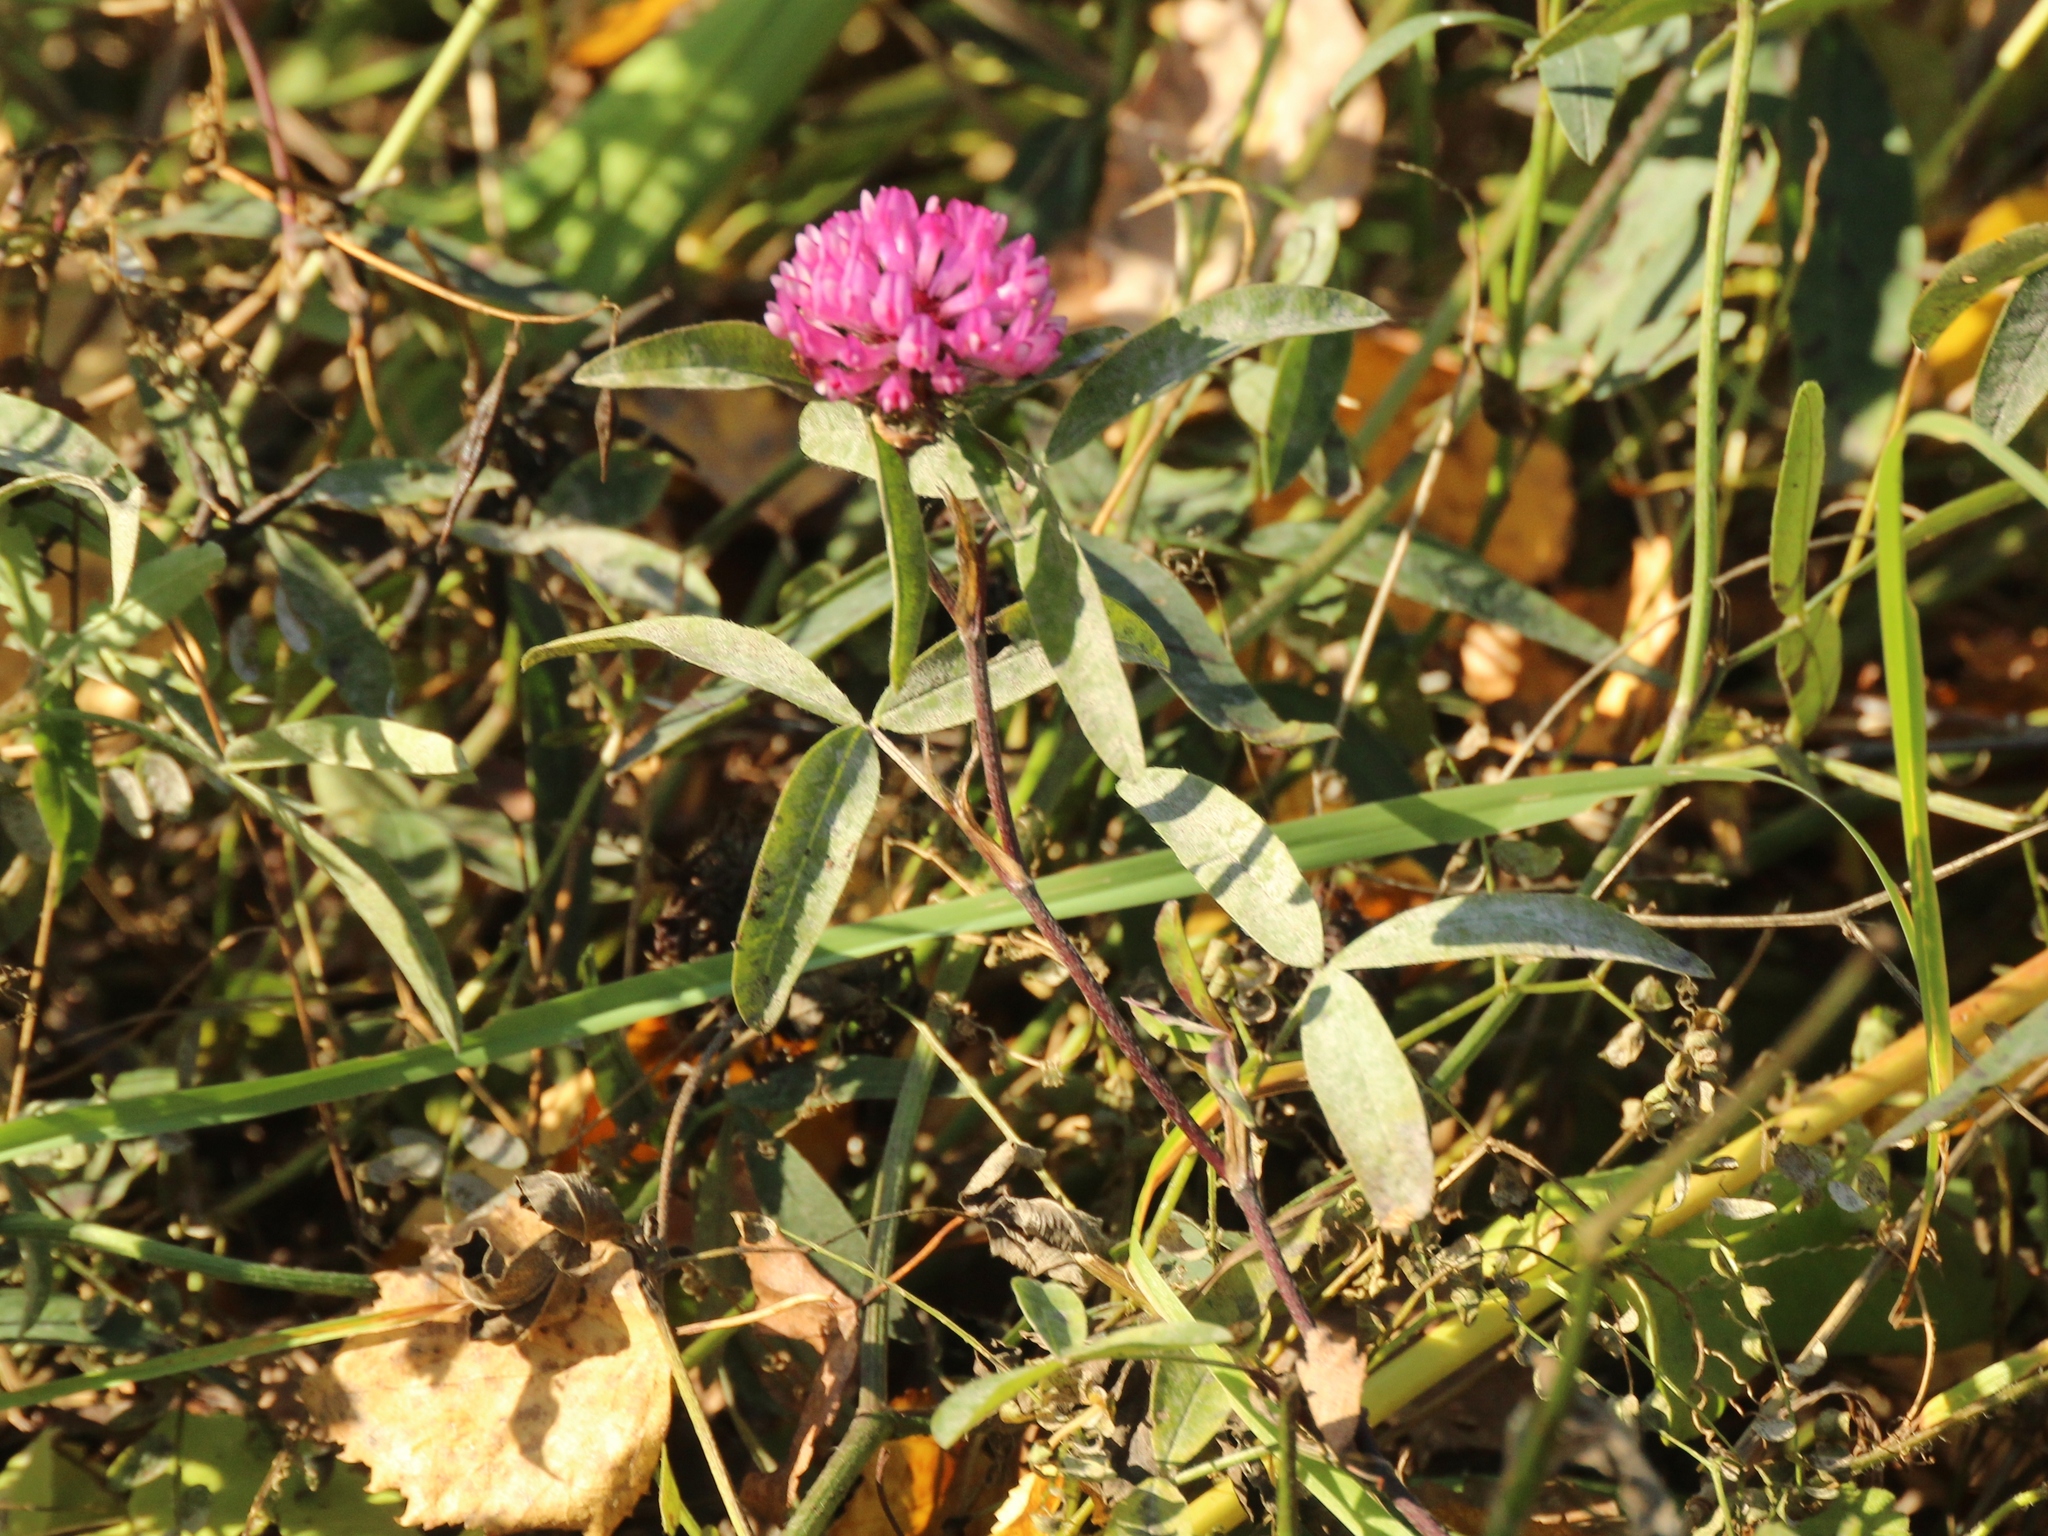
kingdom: Plantae
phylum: Tracheophyta
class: Magnoliopsida
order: Fabales
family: Fabaceae
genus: Trifolium
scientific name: Trifolium medium
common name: Zigzag clover
